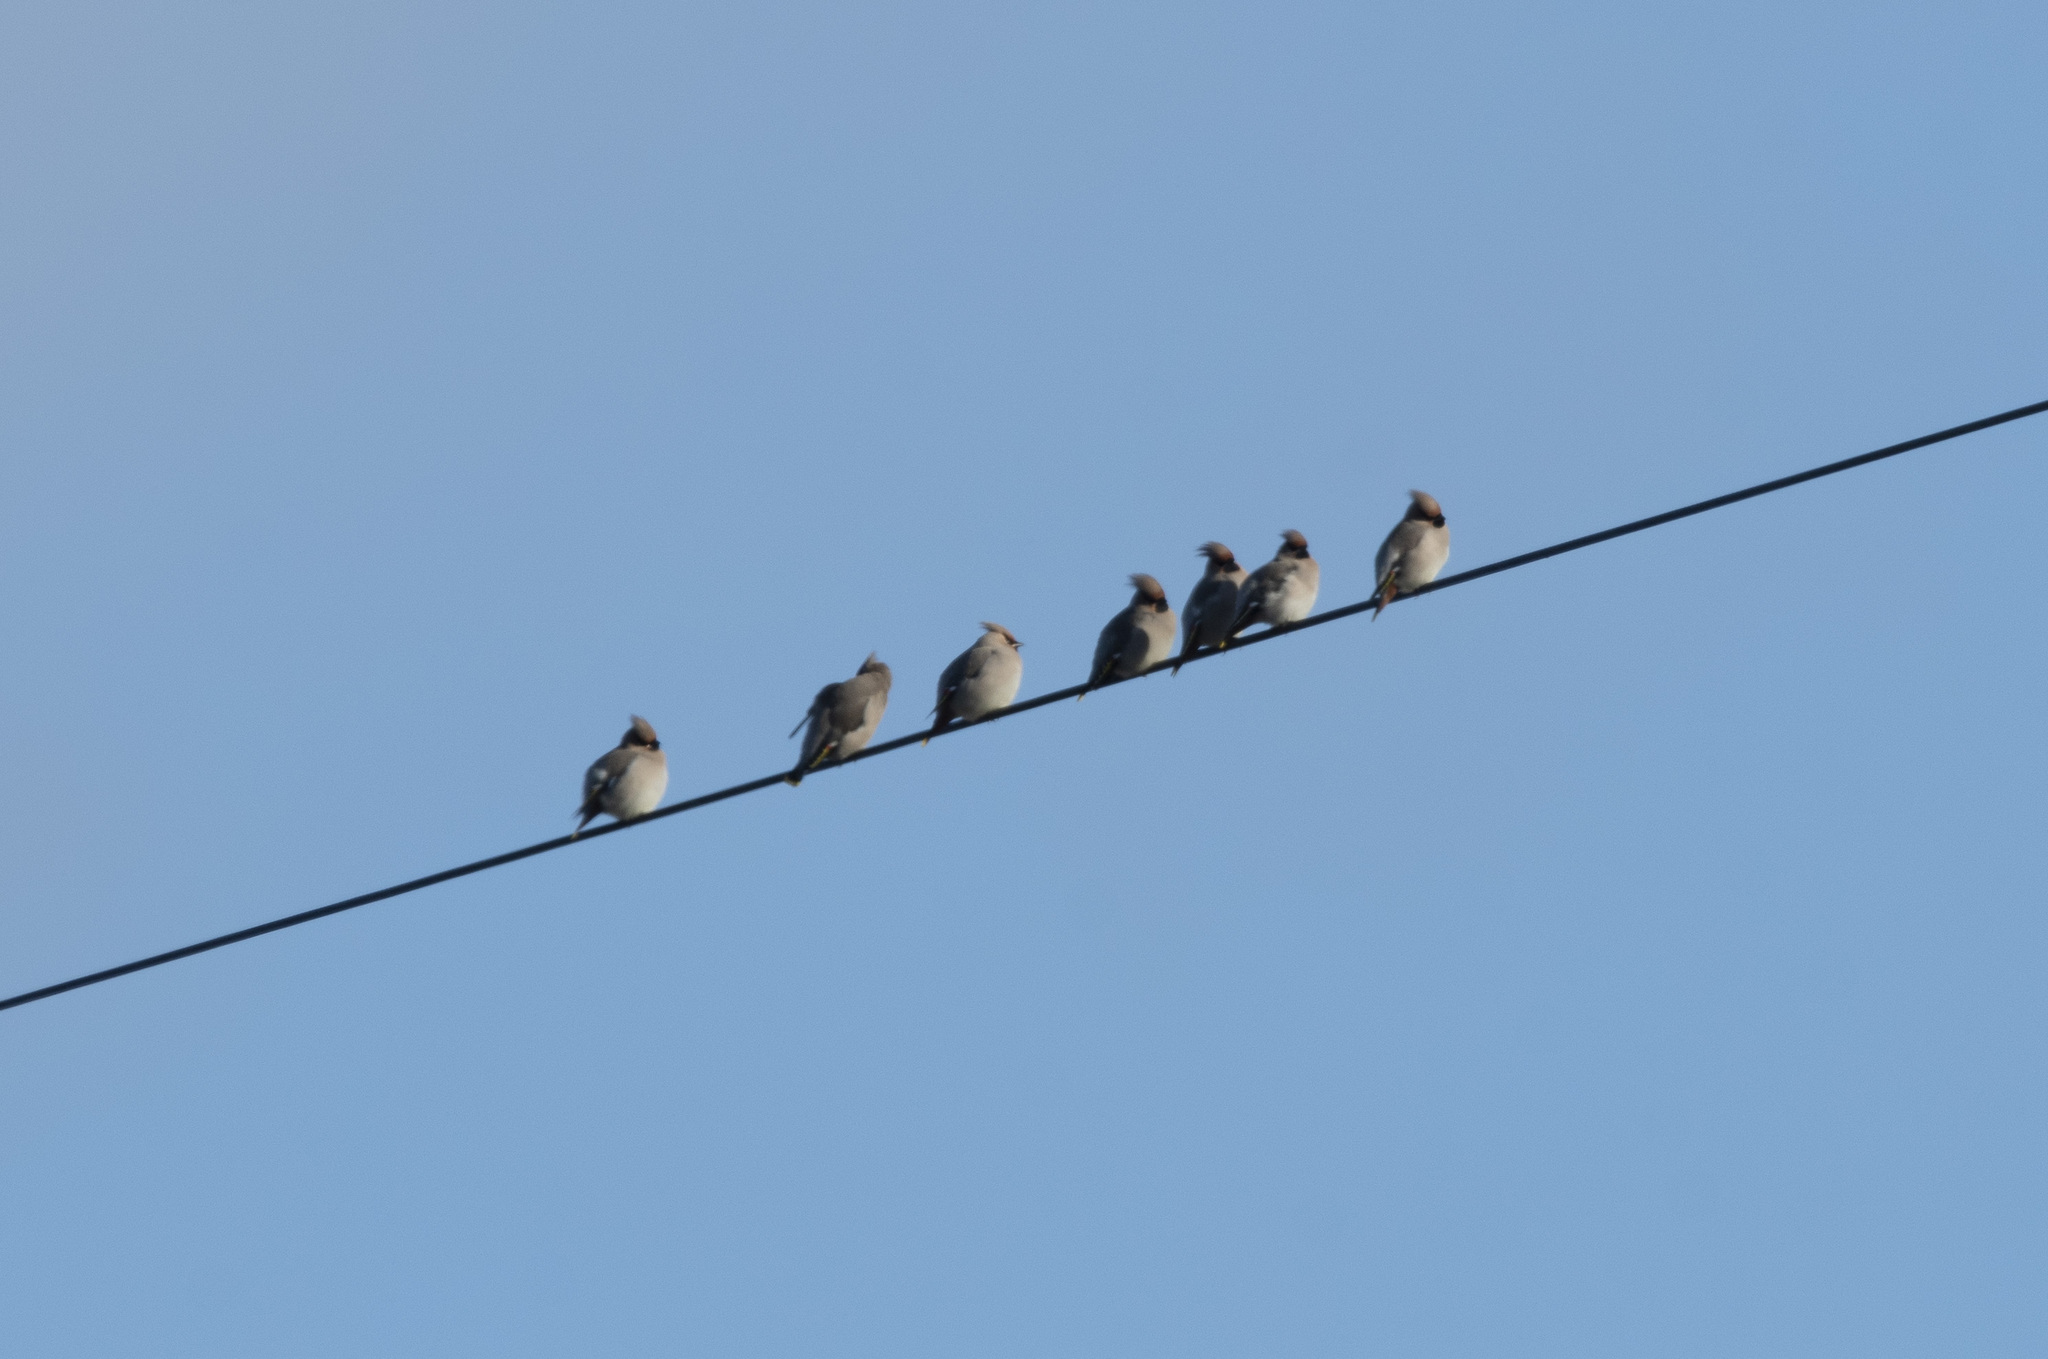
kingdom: Animalia
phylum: Chordata
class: Aves
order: Passeriformes
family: Bombycillidae
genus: Bombycilla
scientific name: Bombycilla garrulus
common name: Bohemian waxwing
